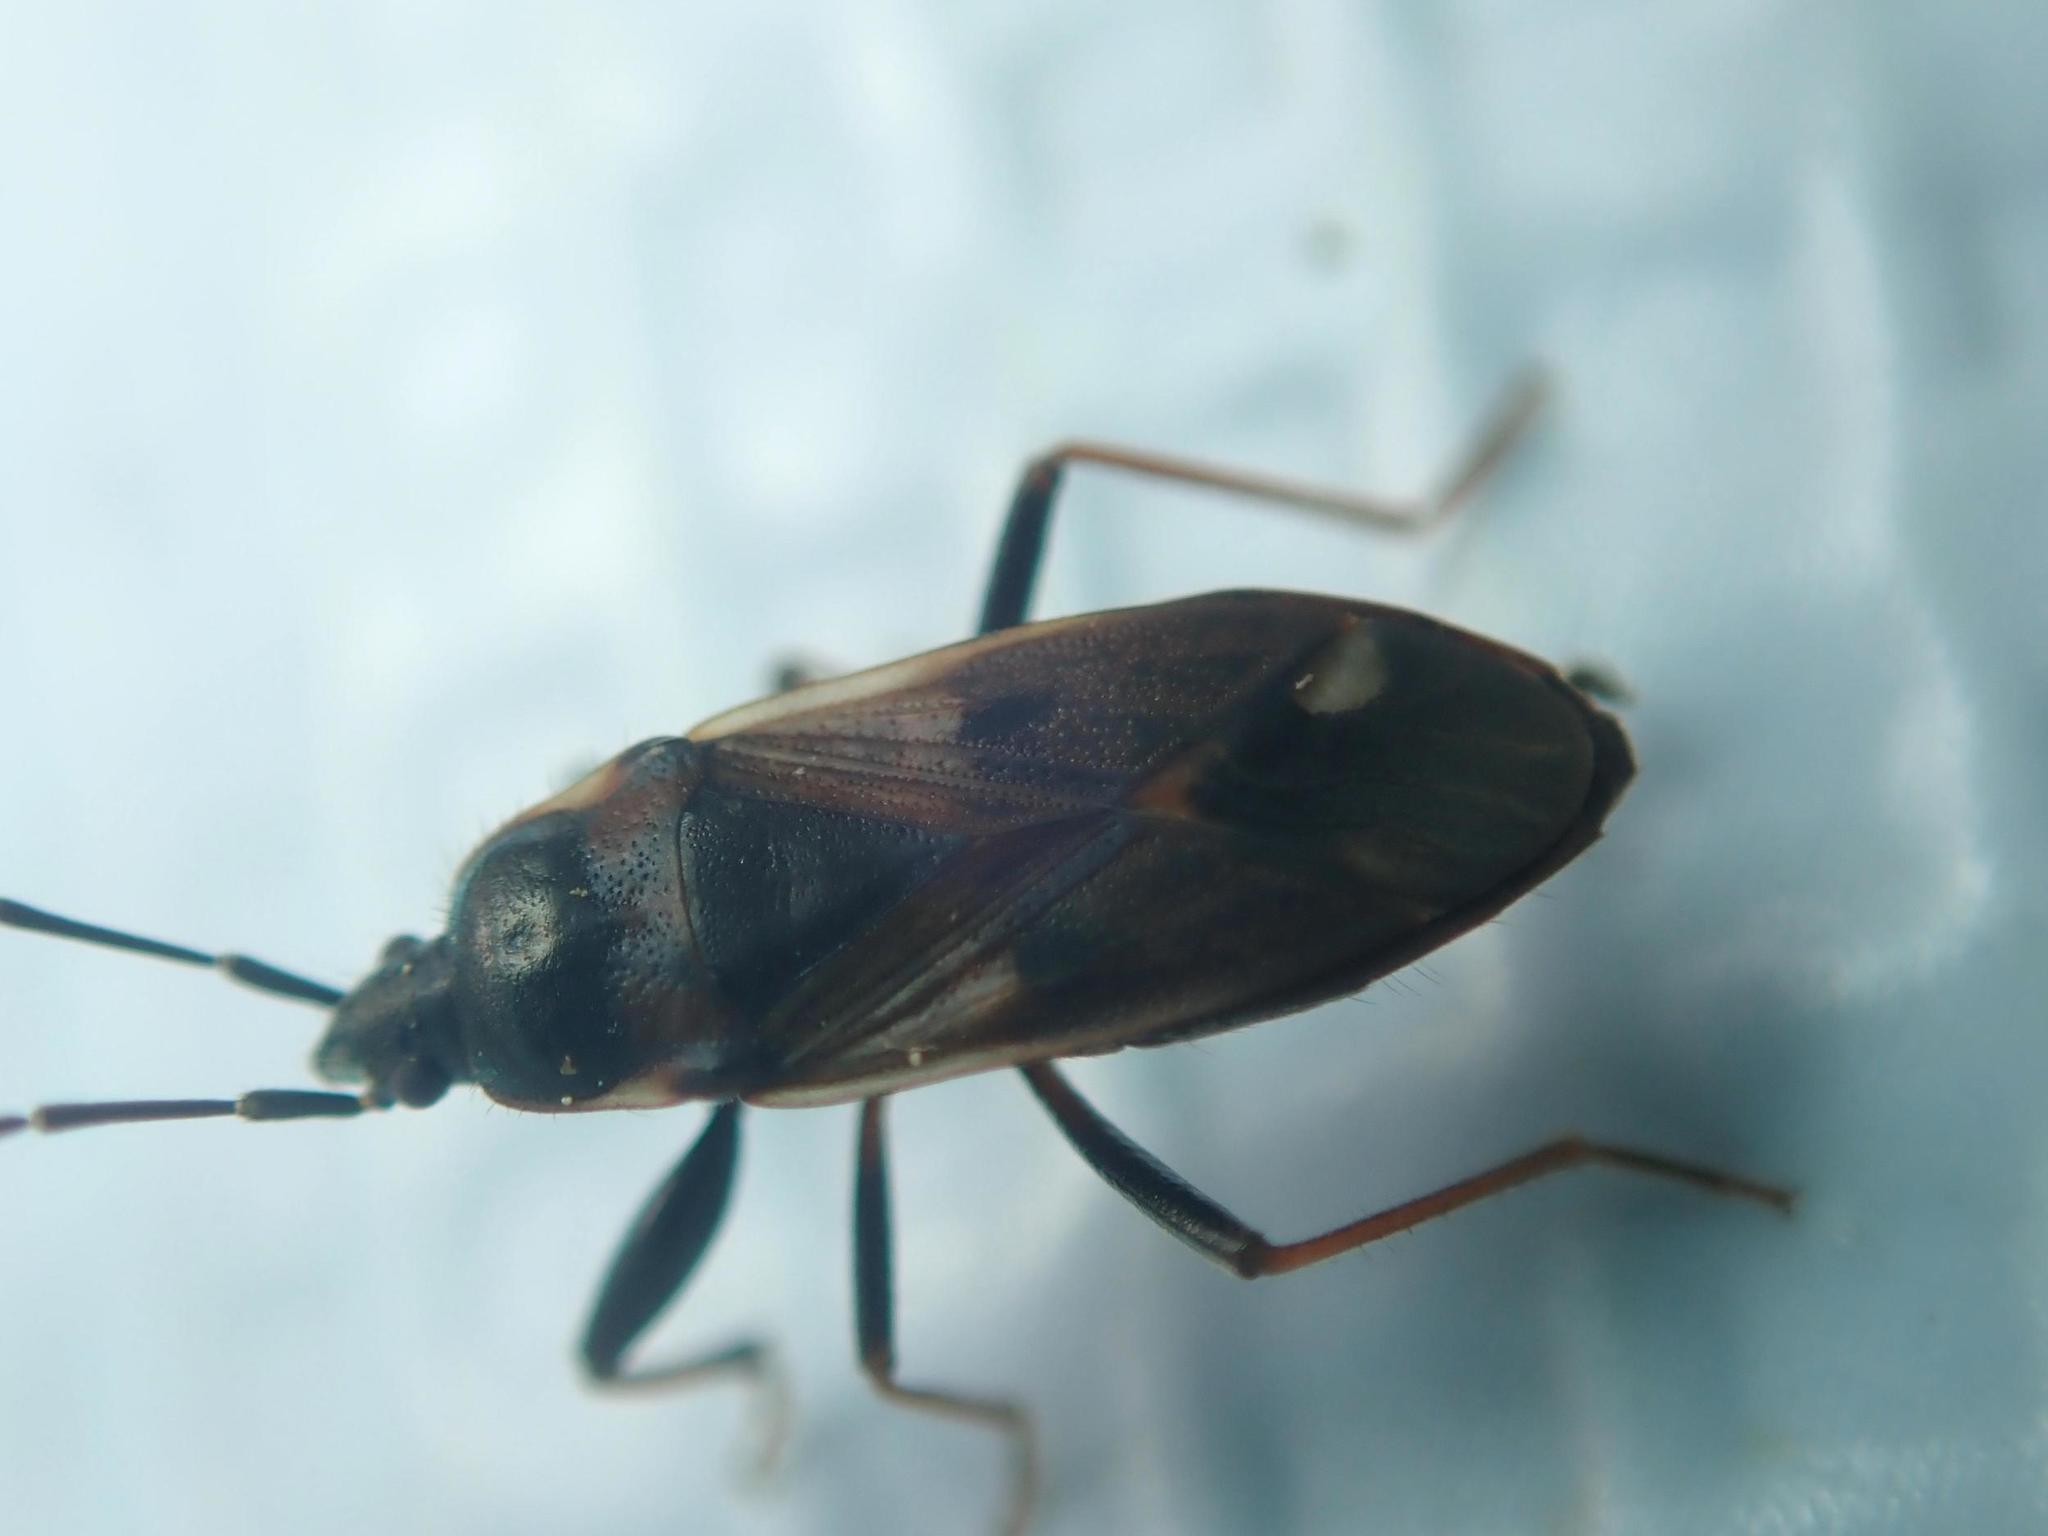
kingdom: Animalia
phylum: Arthropoda
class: Insecta
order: Hemiptera
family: Rhyparochromidae
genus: Eremocoris
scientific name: Eremocoris fenestratus
